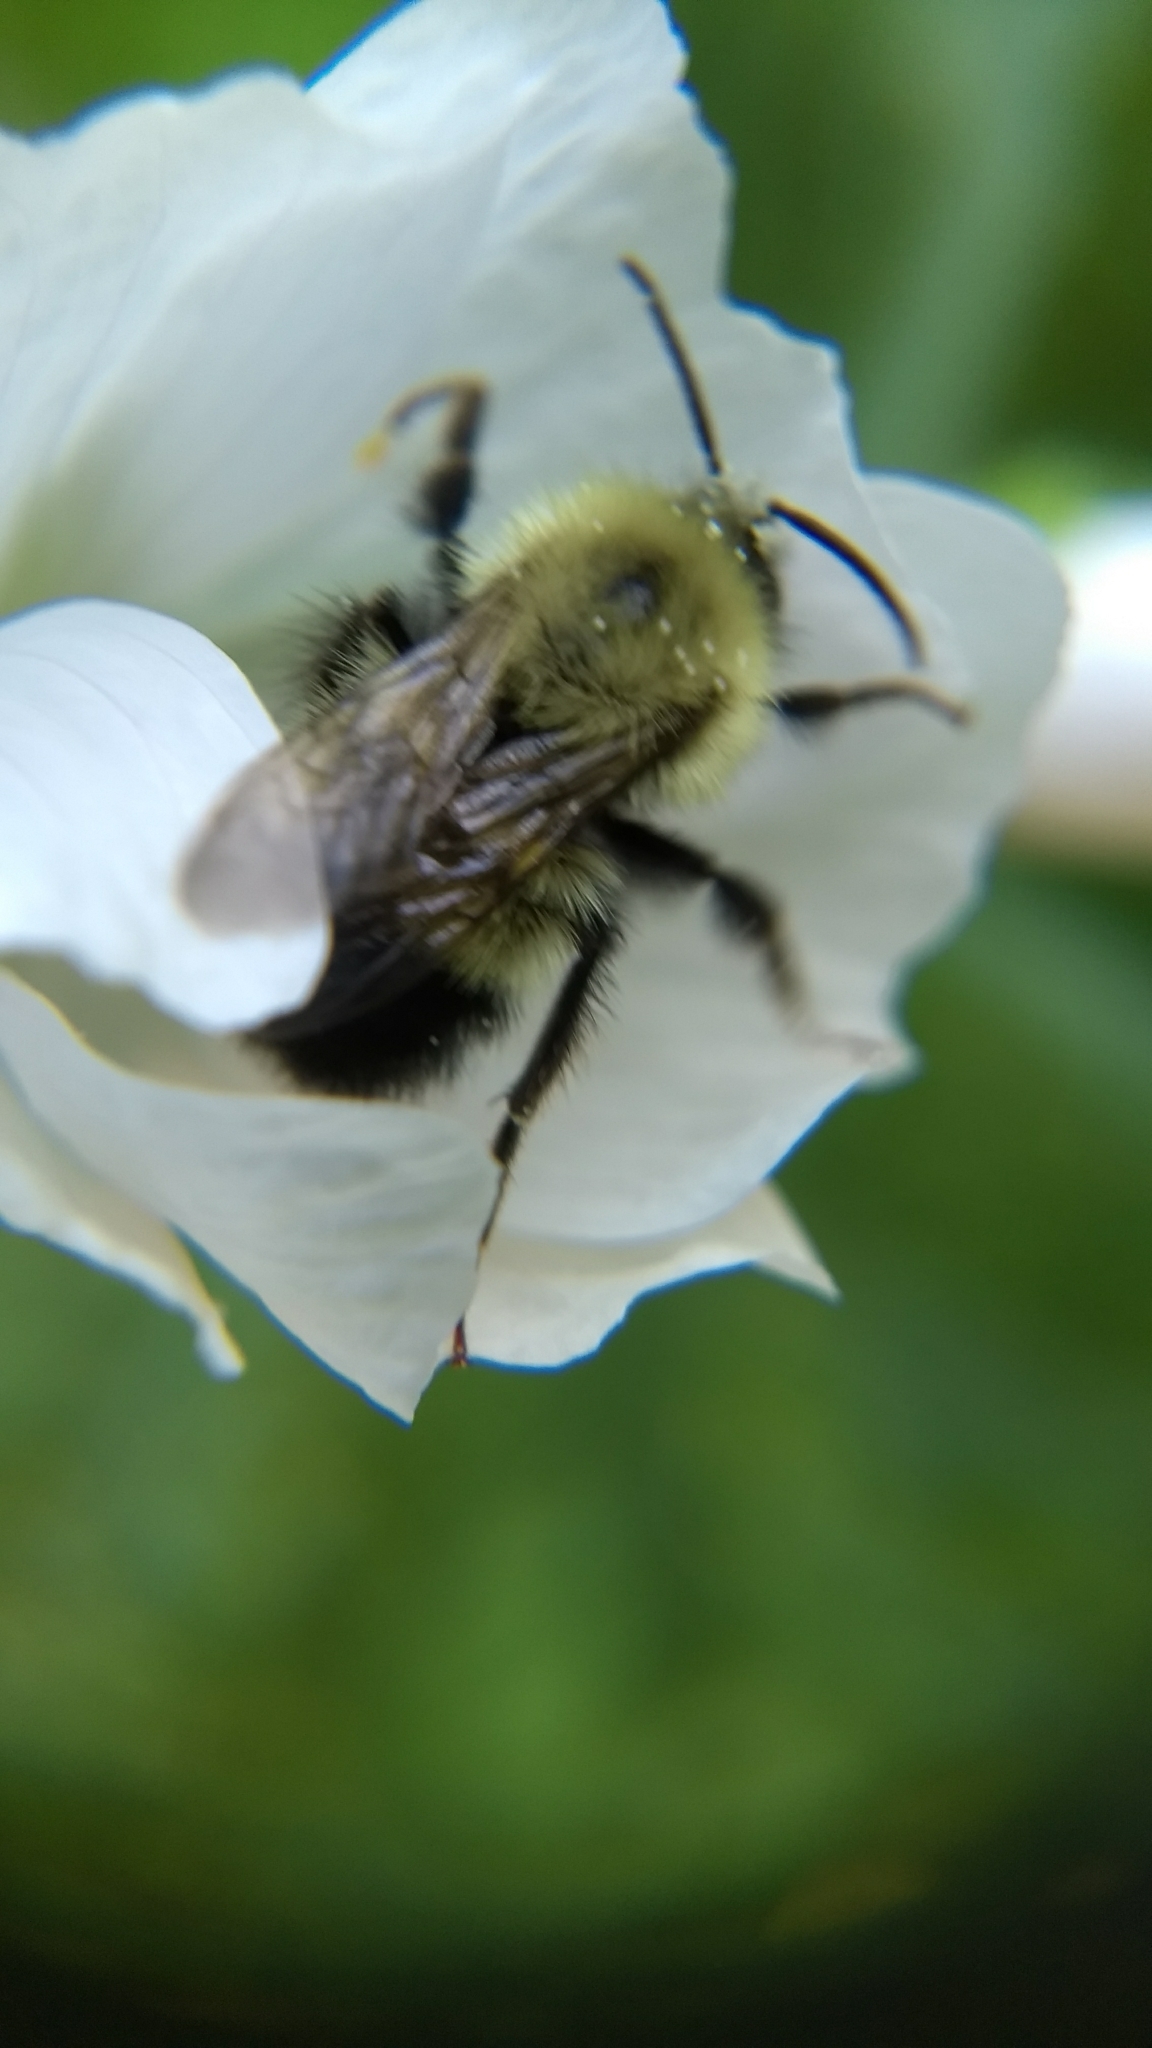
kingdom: Animalia
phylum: Arthropoda
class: Insecta
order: Hymenoptera
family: Apidae
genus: Pyrobombus
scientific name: Pyrobombus
